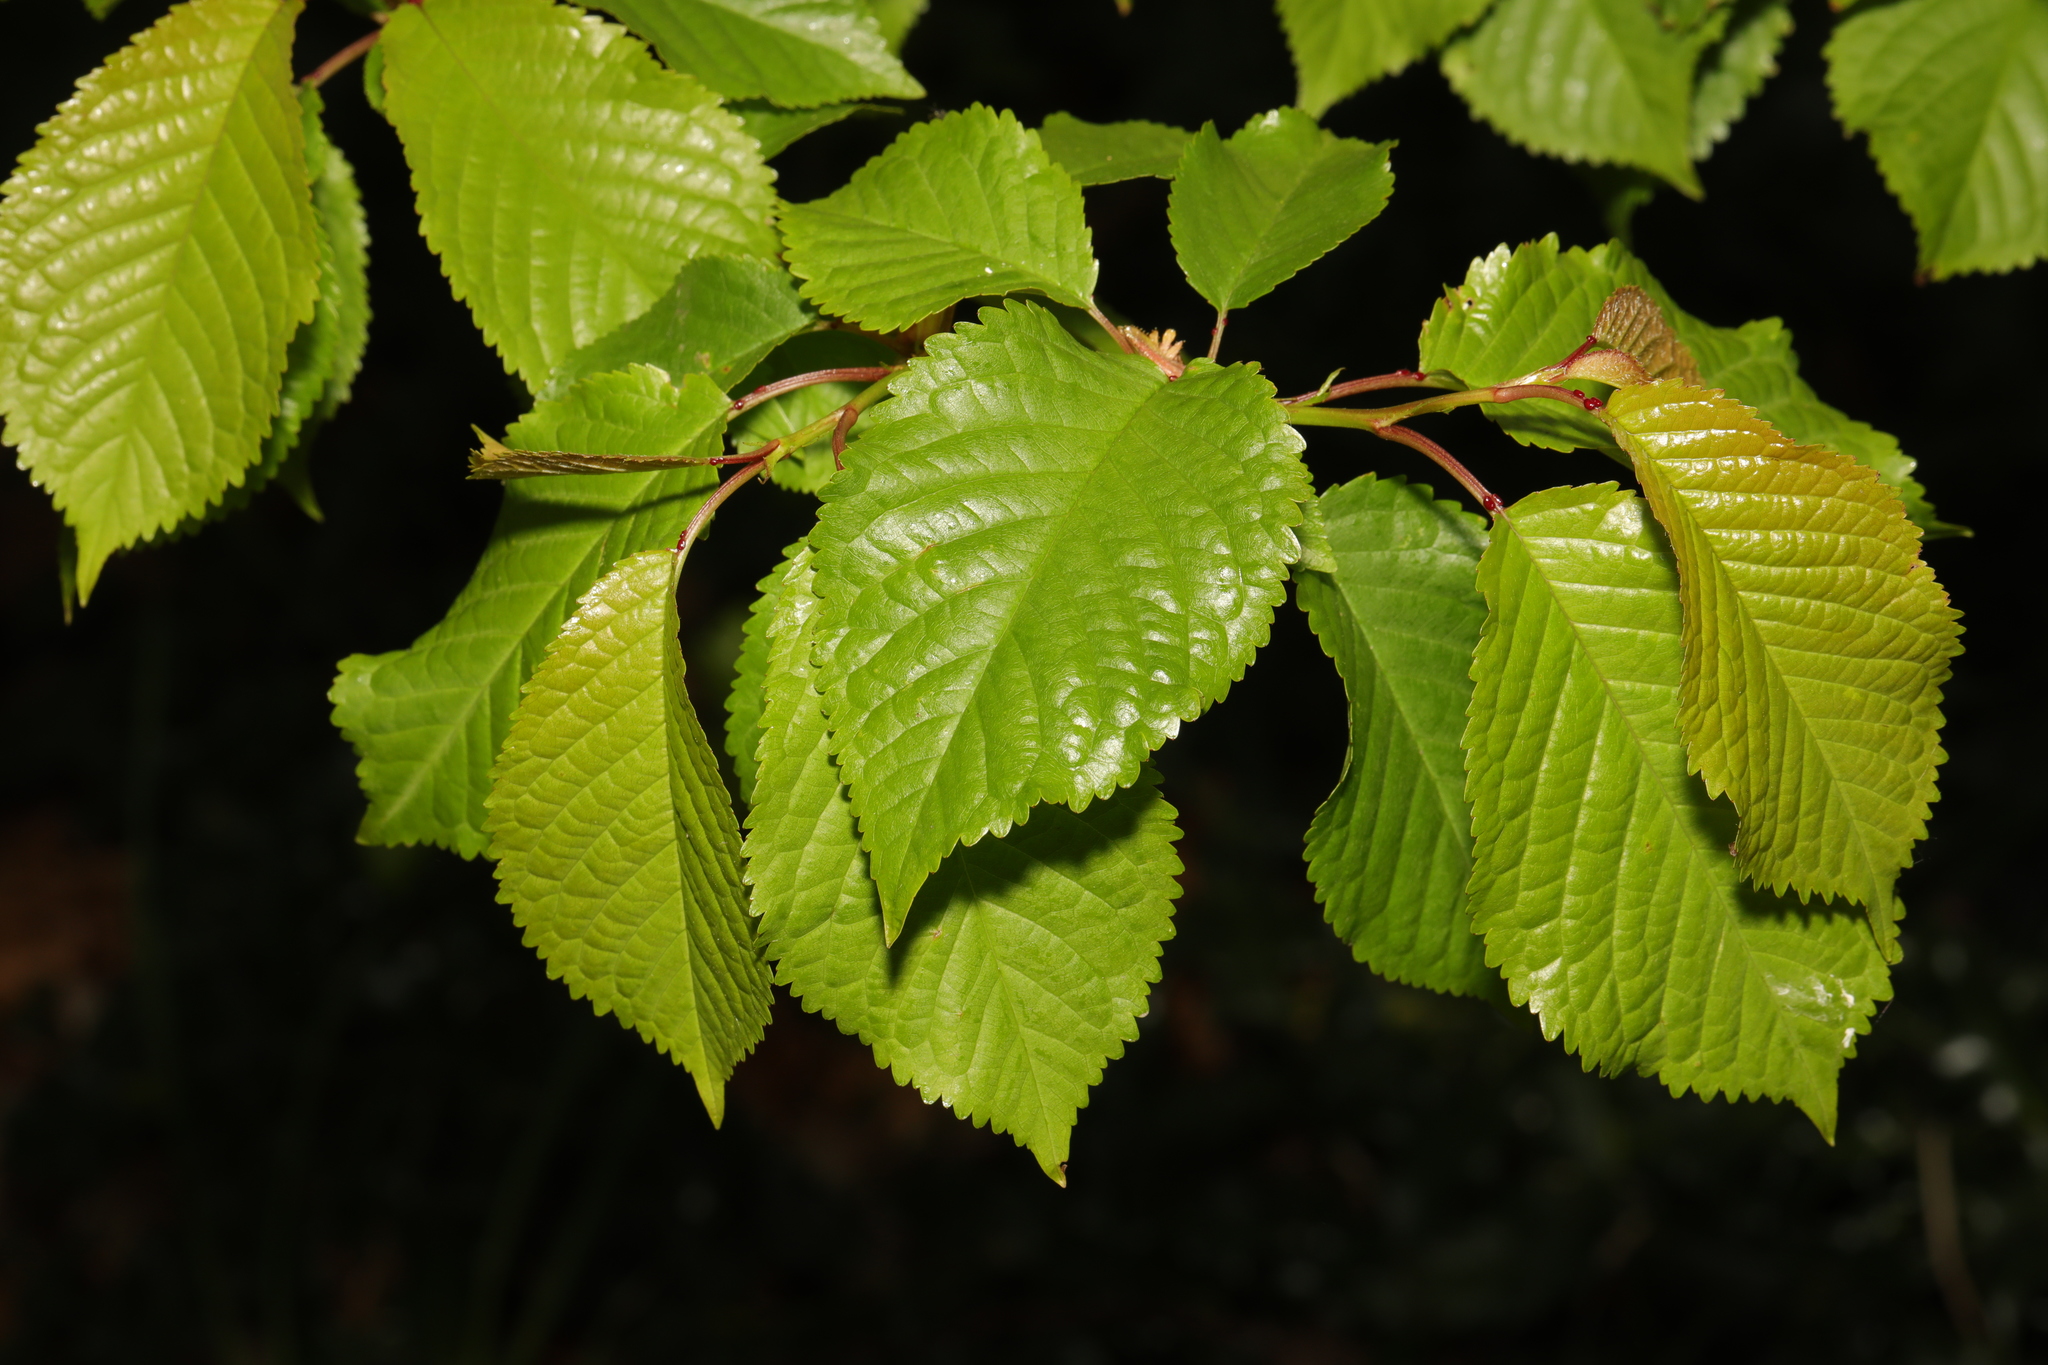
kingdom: Plantae
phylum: Tracheophyta
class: Magnoliopsida
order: Rosales
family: Rosaceae
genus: Prunus
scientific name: Prunus avium
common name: Sweet cherry
